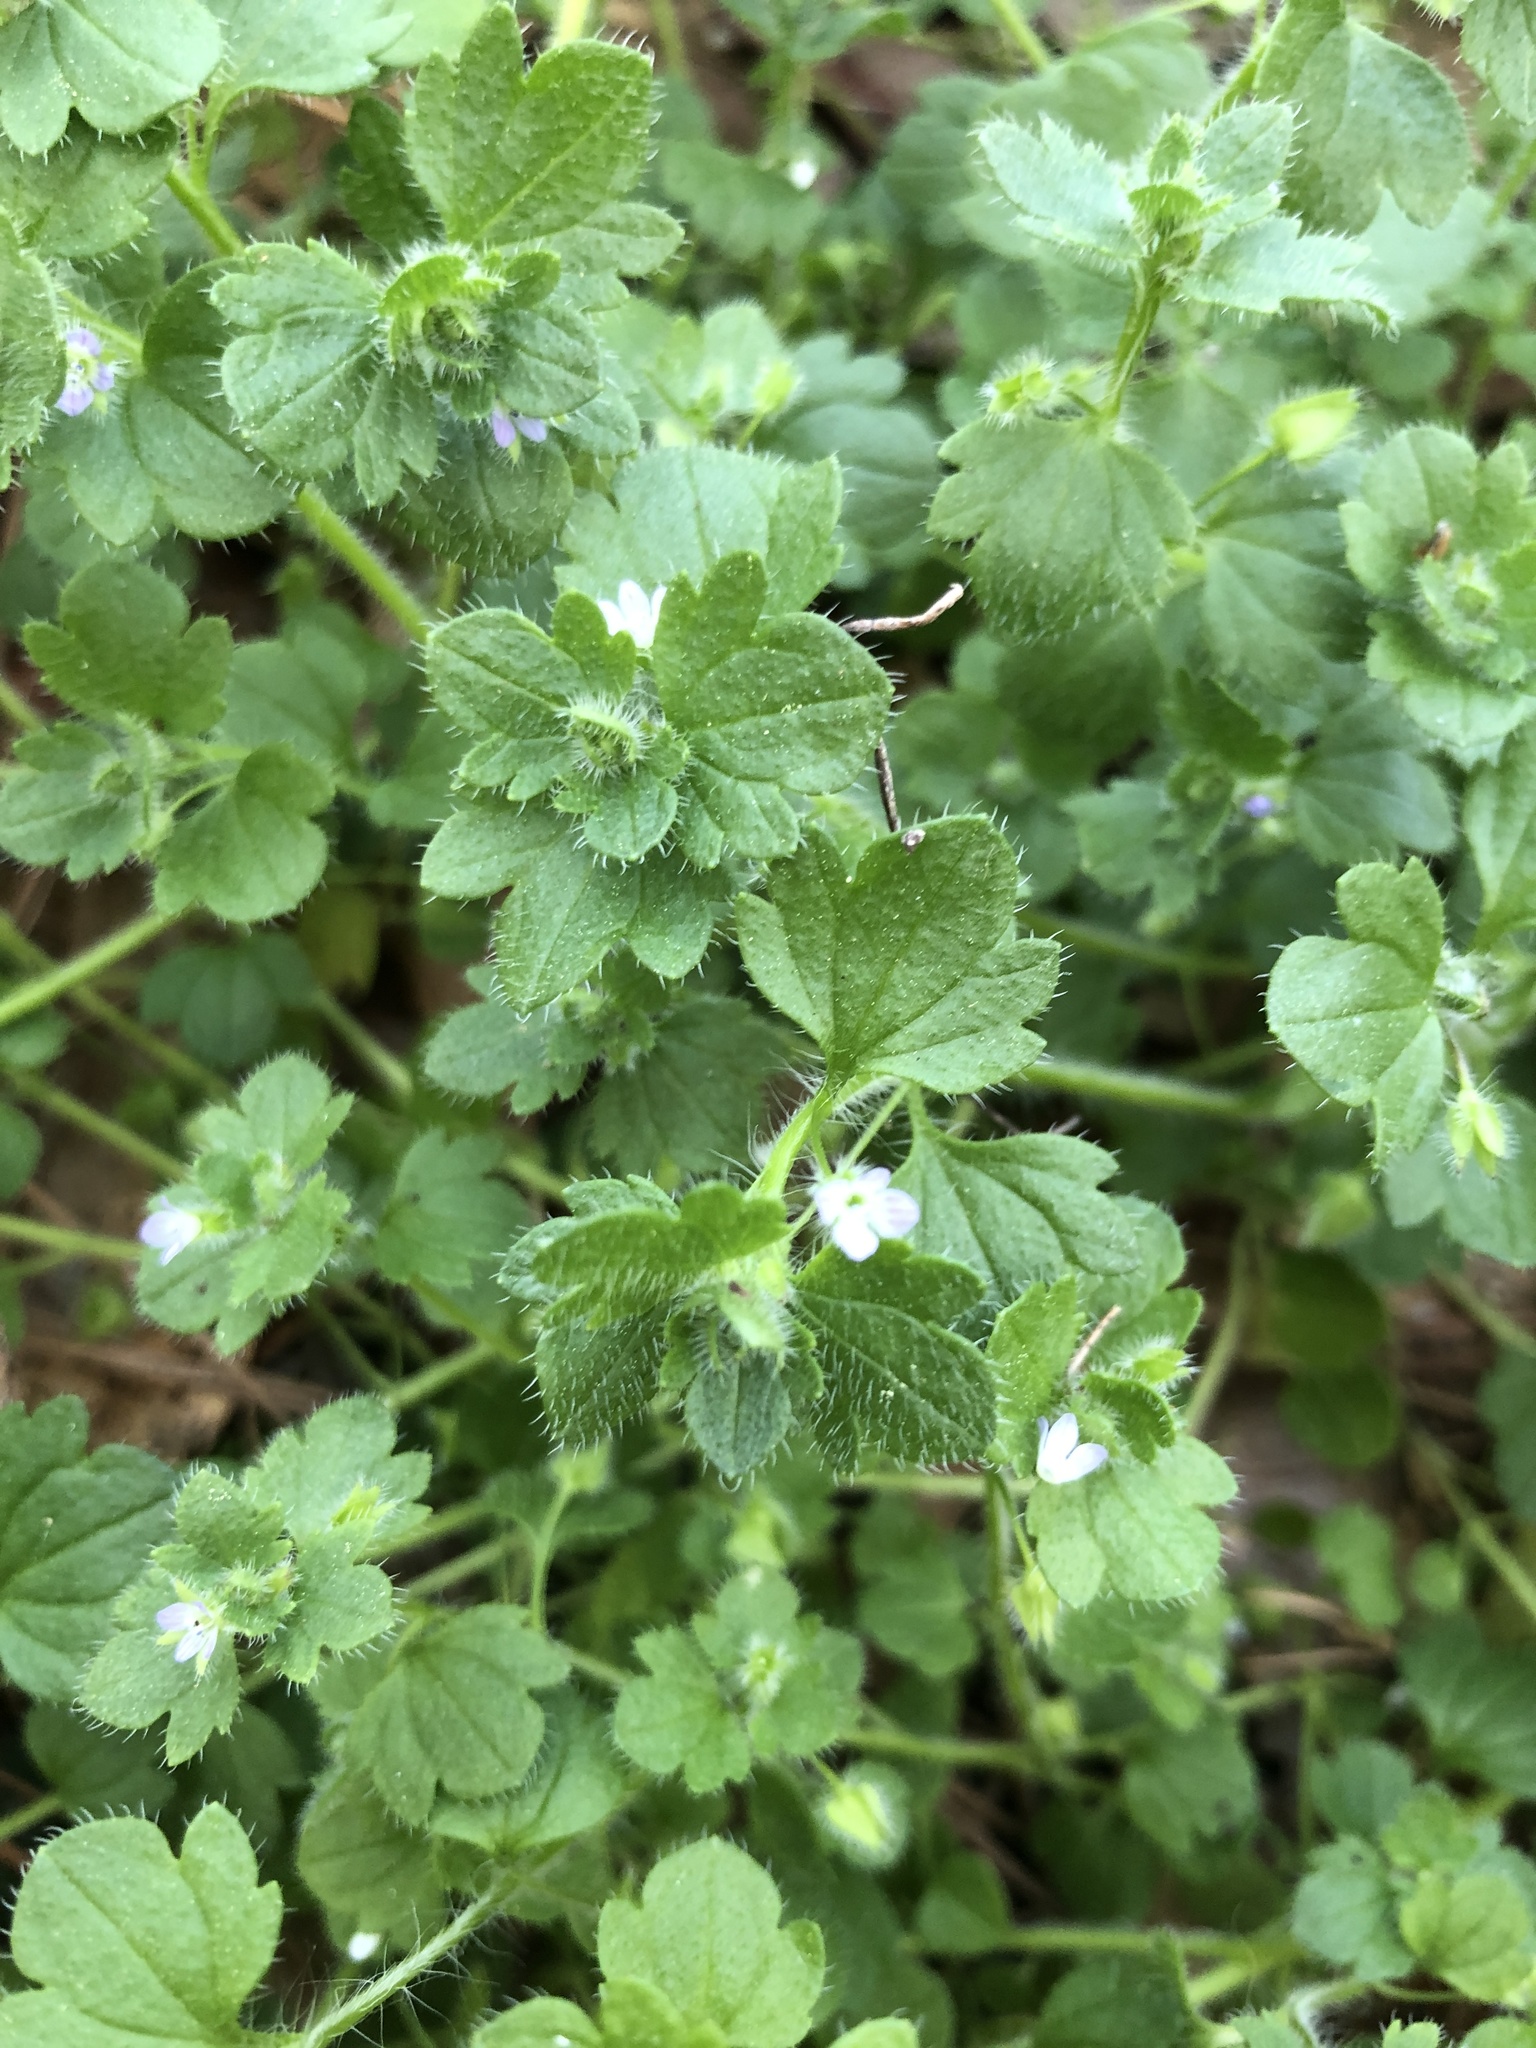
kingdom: Plantae
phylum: Tracheophyta
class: Magnoliopsida
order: Lamiales
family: Plantaginaceae
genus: Veronica
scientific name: Veronica hederifolia
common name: Ivy-leaved speedwell
